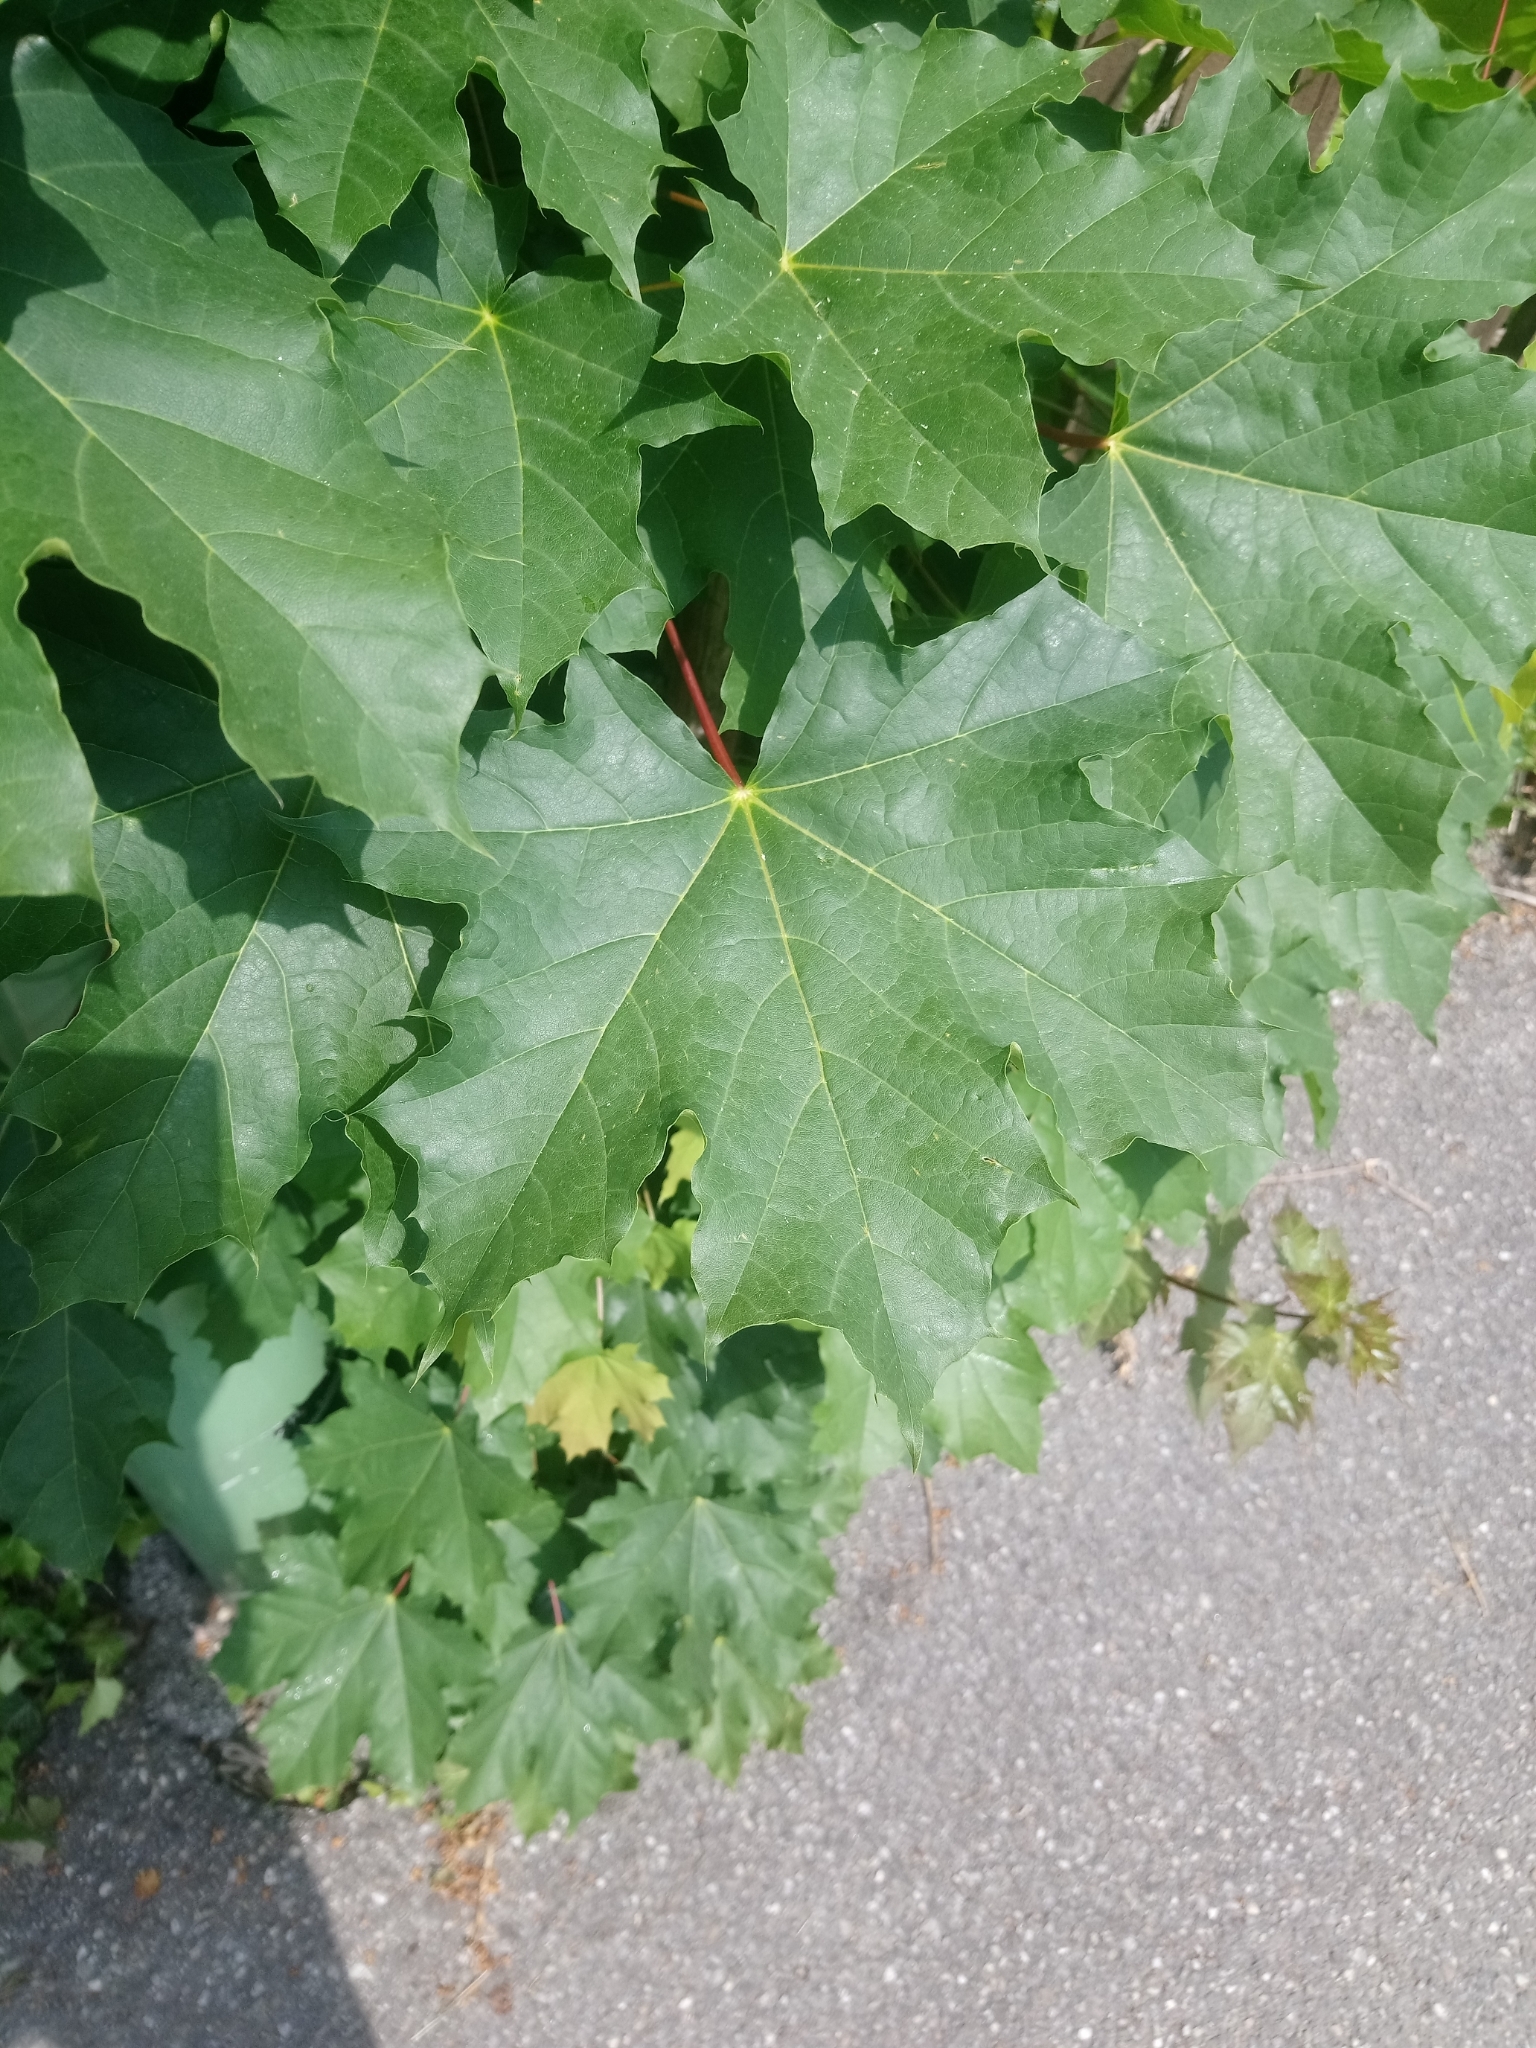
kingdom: Plantae
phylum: Tracheophyta
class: Magnoliopsida
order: Sapindales
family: Sapindaceae
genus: Acer
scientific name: Acer platanoides
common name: Norway maple
